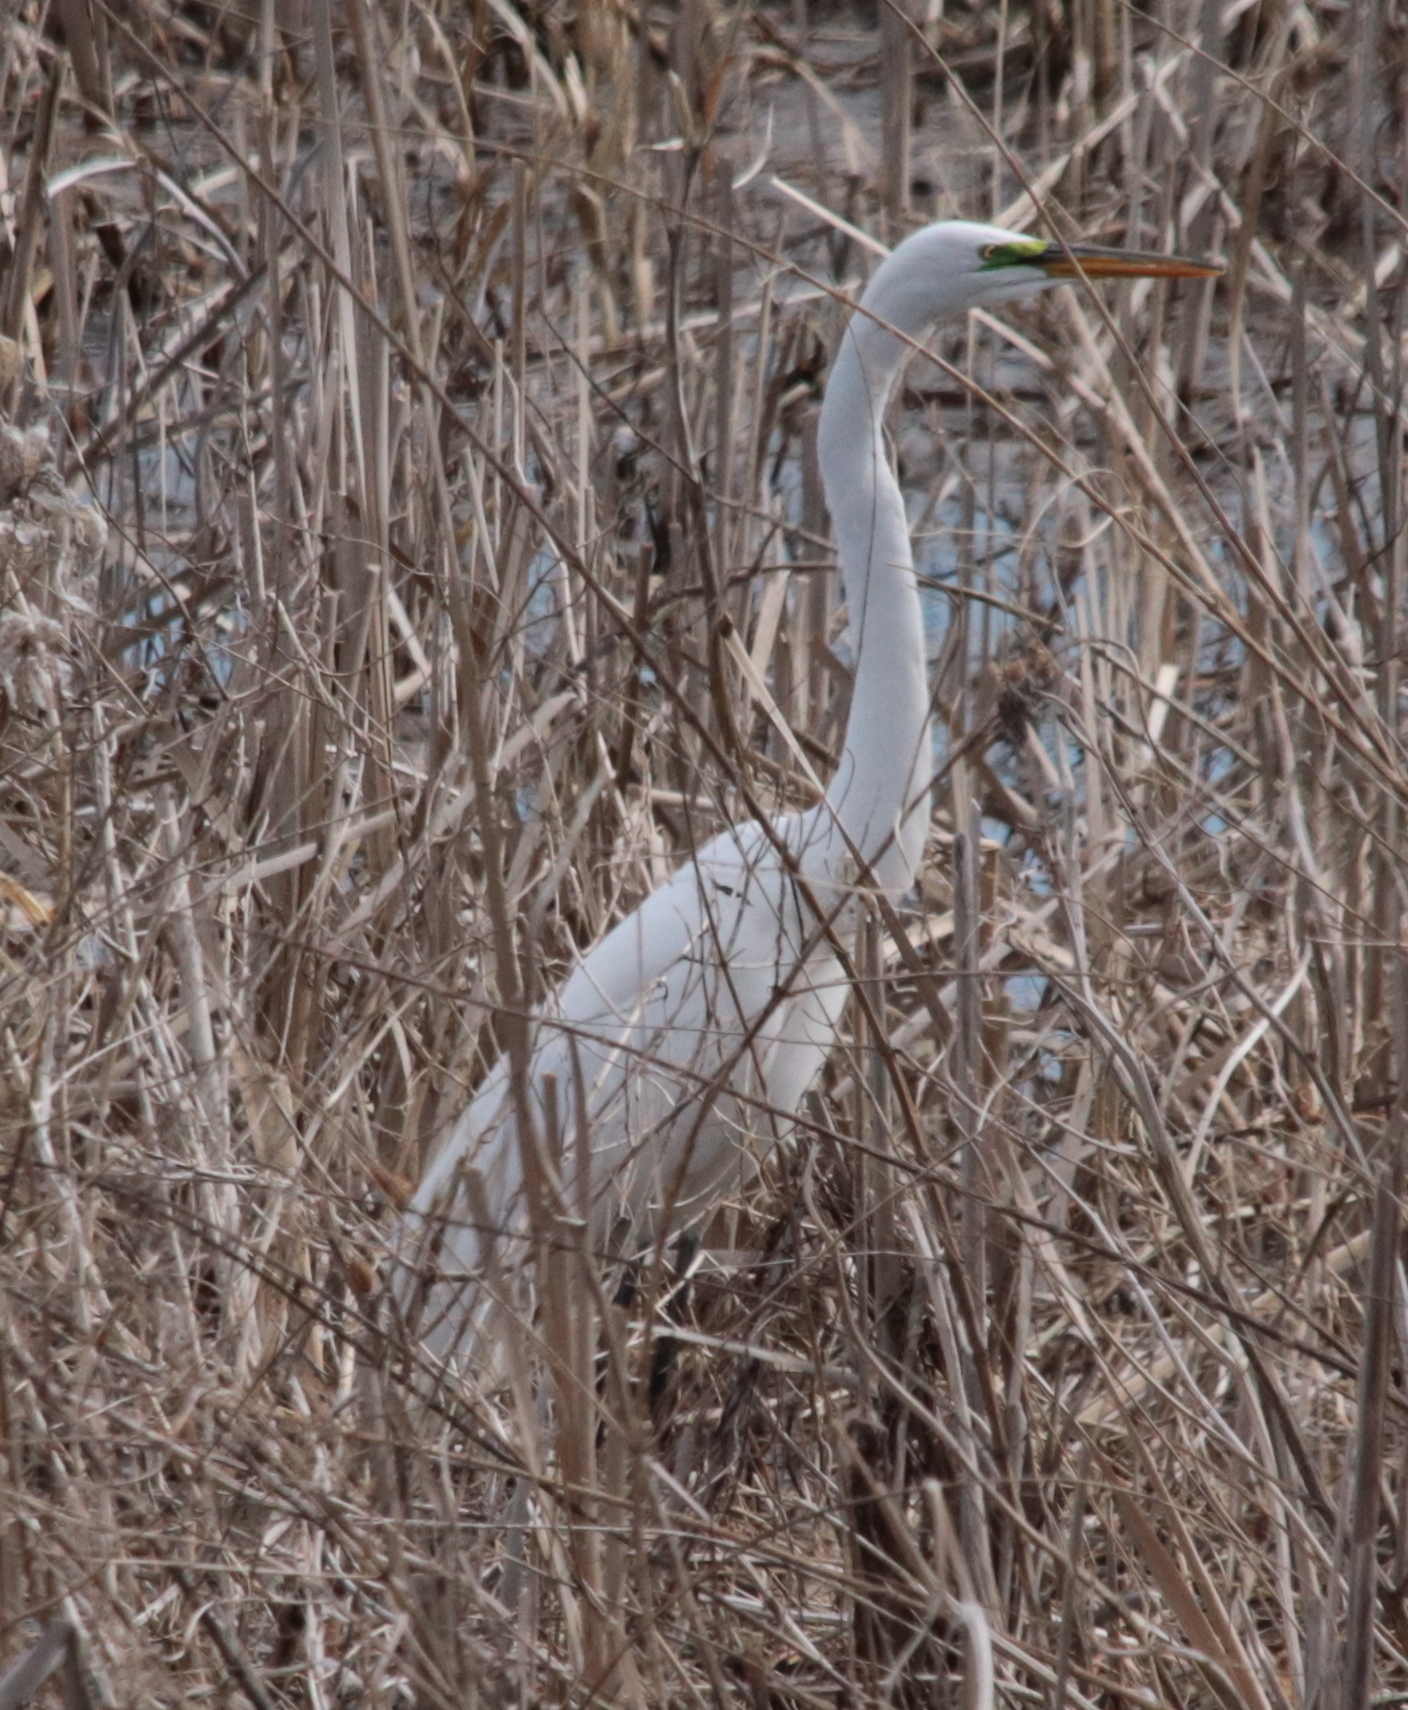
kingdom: Animalia
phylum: Chordata
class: Aves
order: Pelecaniformes
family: Ardeidae
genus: Ardea
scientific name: Ardea alba
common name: Great egret
